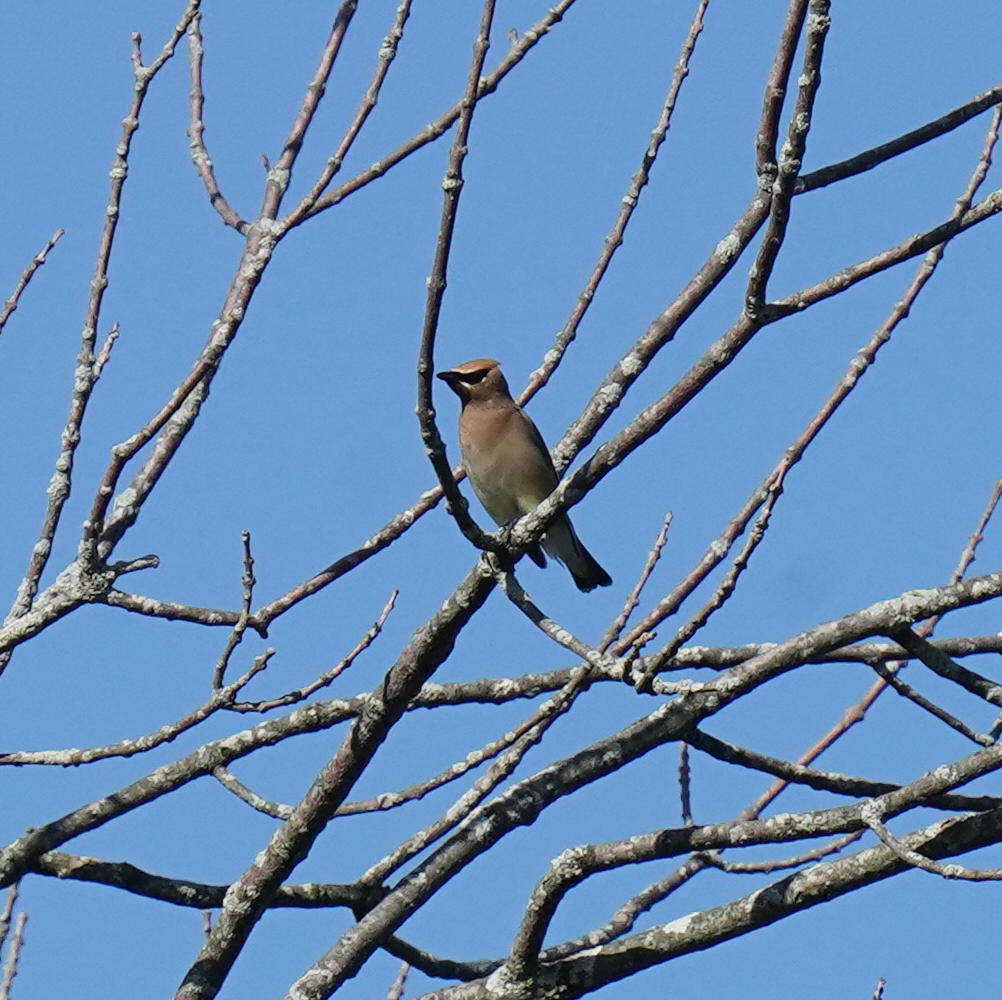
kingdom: Animalia
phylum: Chordata
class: Aves
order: Passeriformes
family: Bombycillidae
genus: Bombycilla
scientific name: Bombycilla cedrorum
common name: Cedar waxwing
